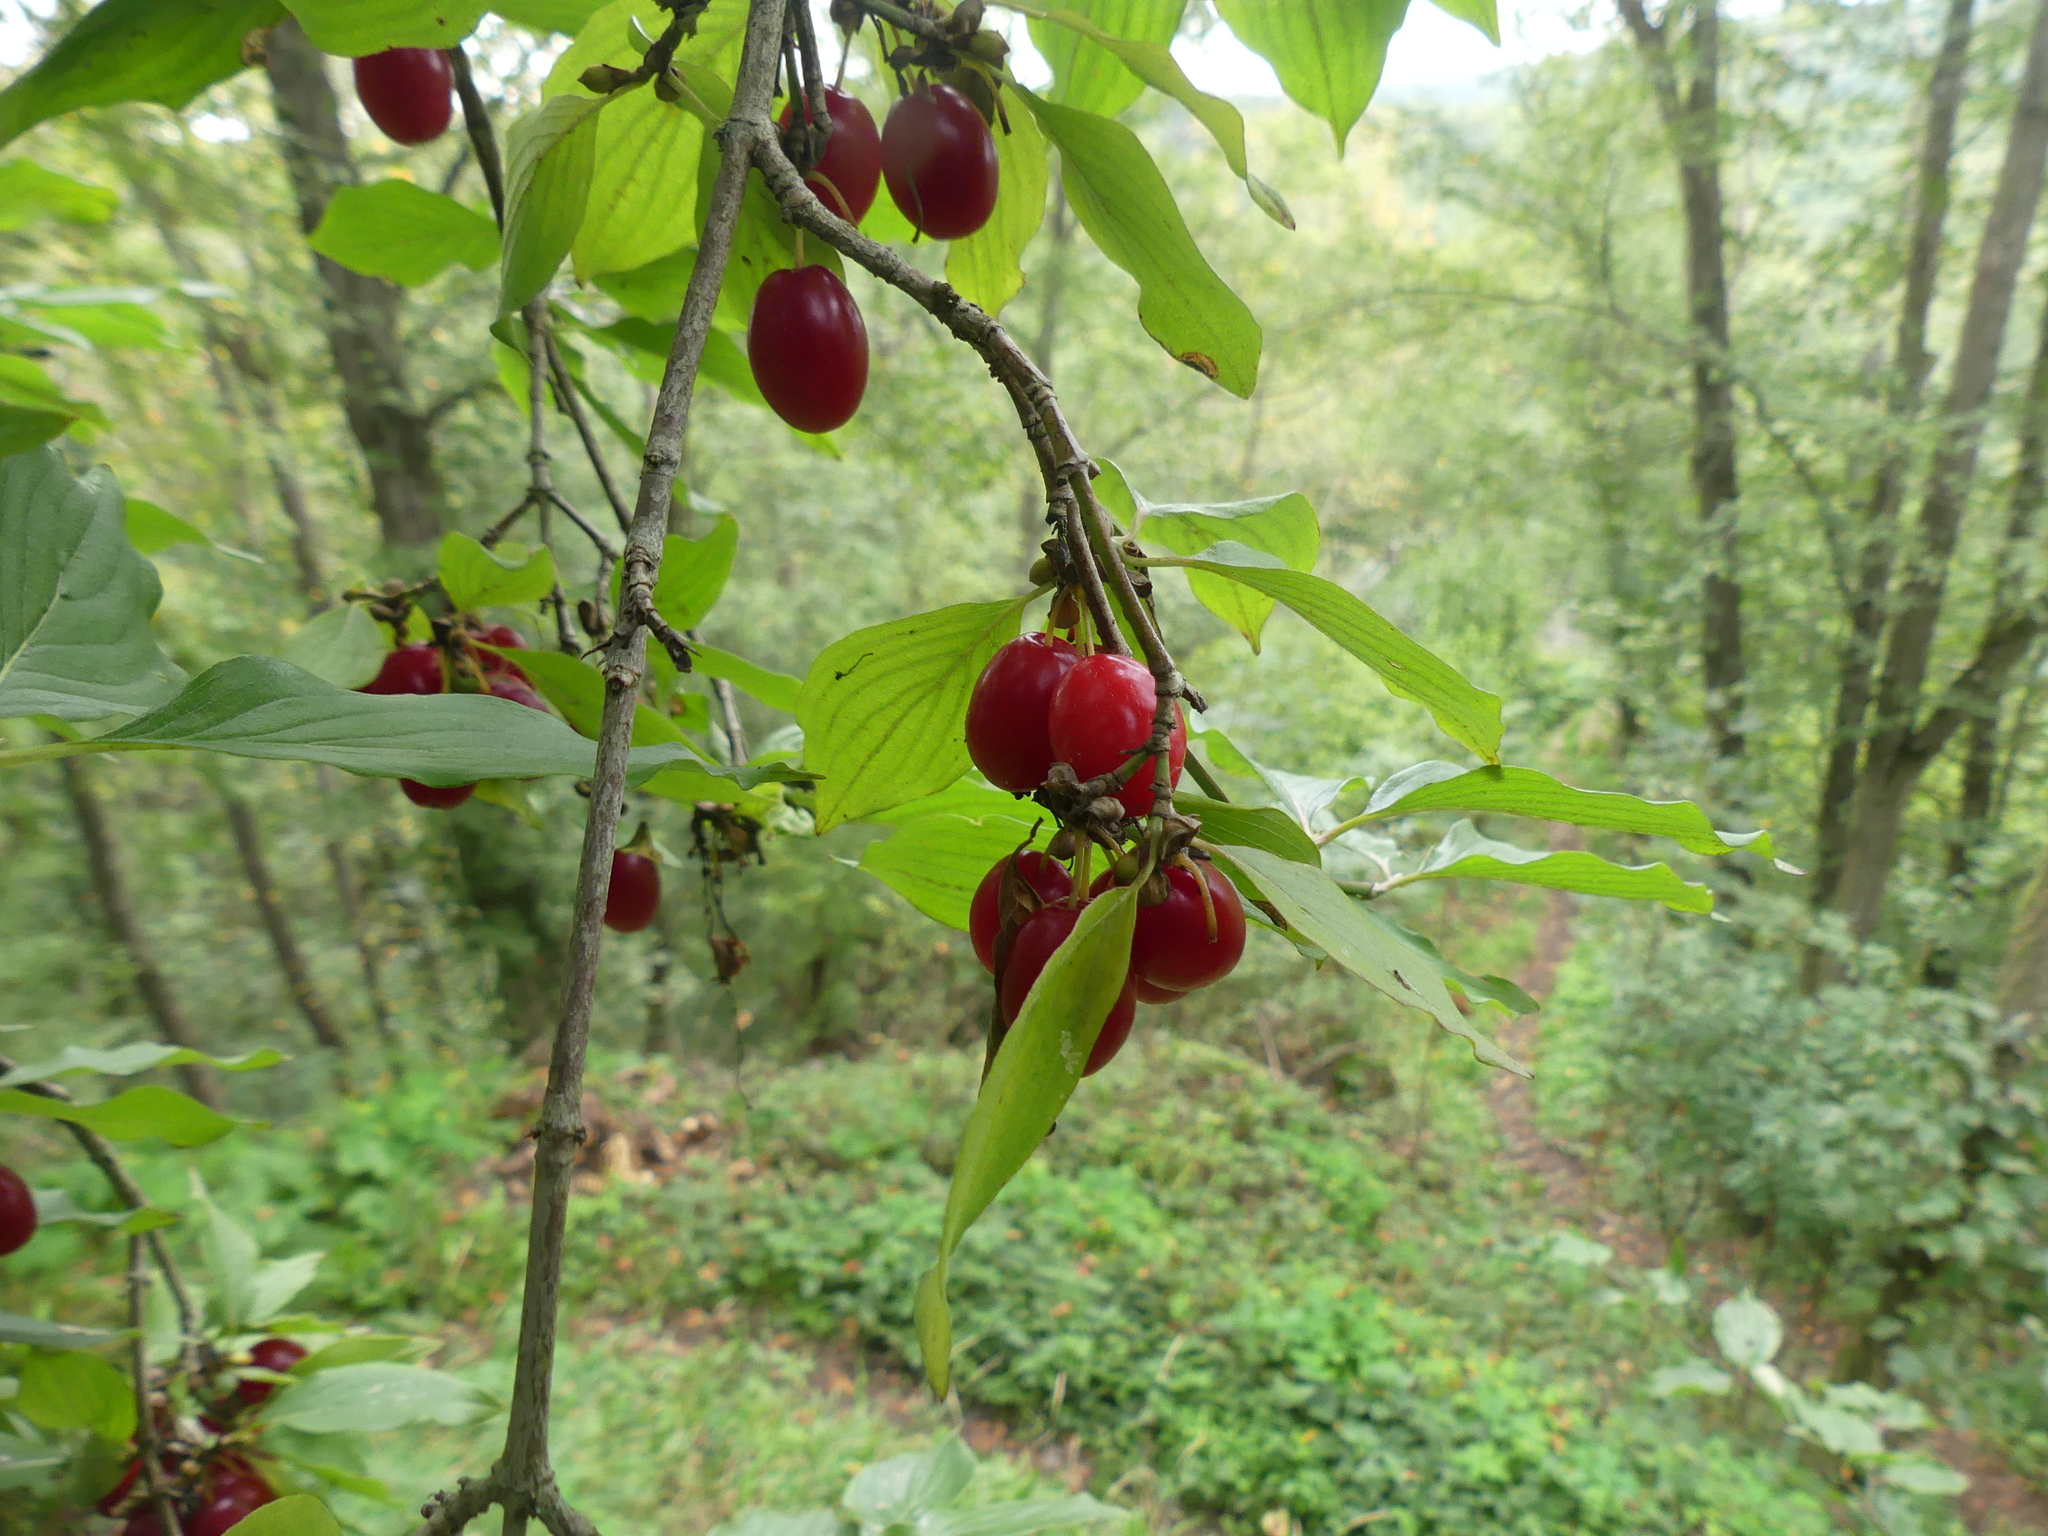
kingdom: Plantae
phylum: Tracheophyta
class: Magnoliopsida
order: Cornales
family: Cornaceae
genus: Cornus
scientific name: Cornus mas
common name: Cornelian-cherry
